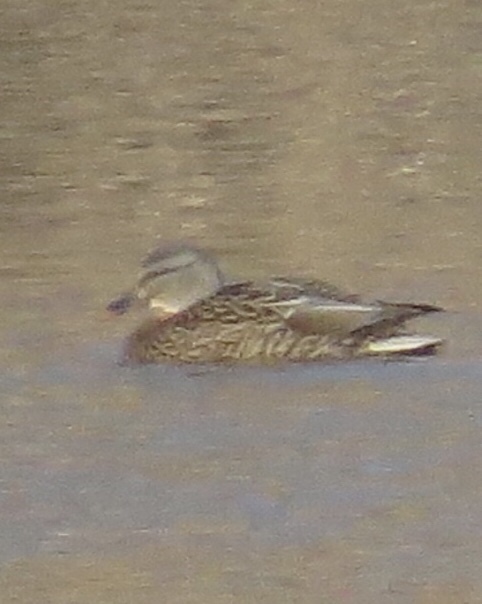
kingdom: Animalia
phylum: Chordata
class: Aves
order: Anseriformes
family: Anatidae
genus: Anas
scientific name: Anas platyrhynchos
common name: Mallard
